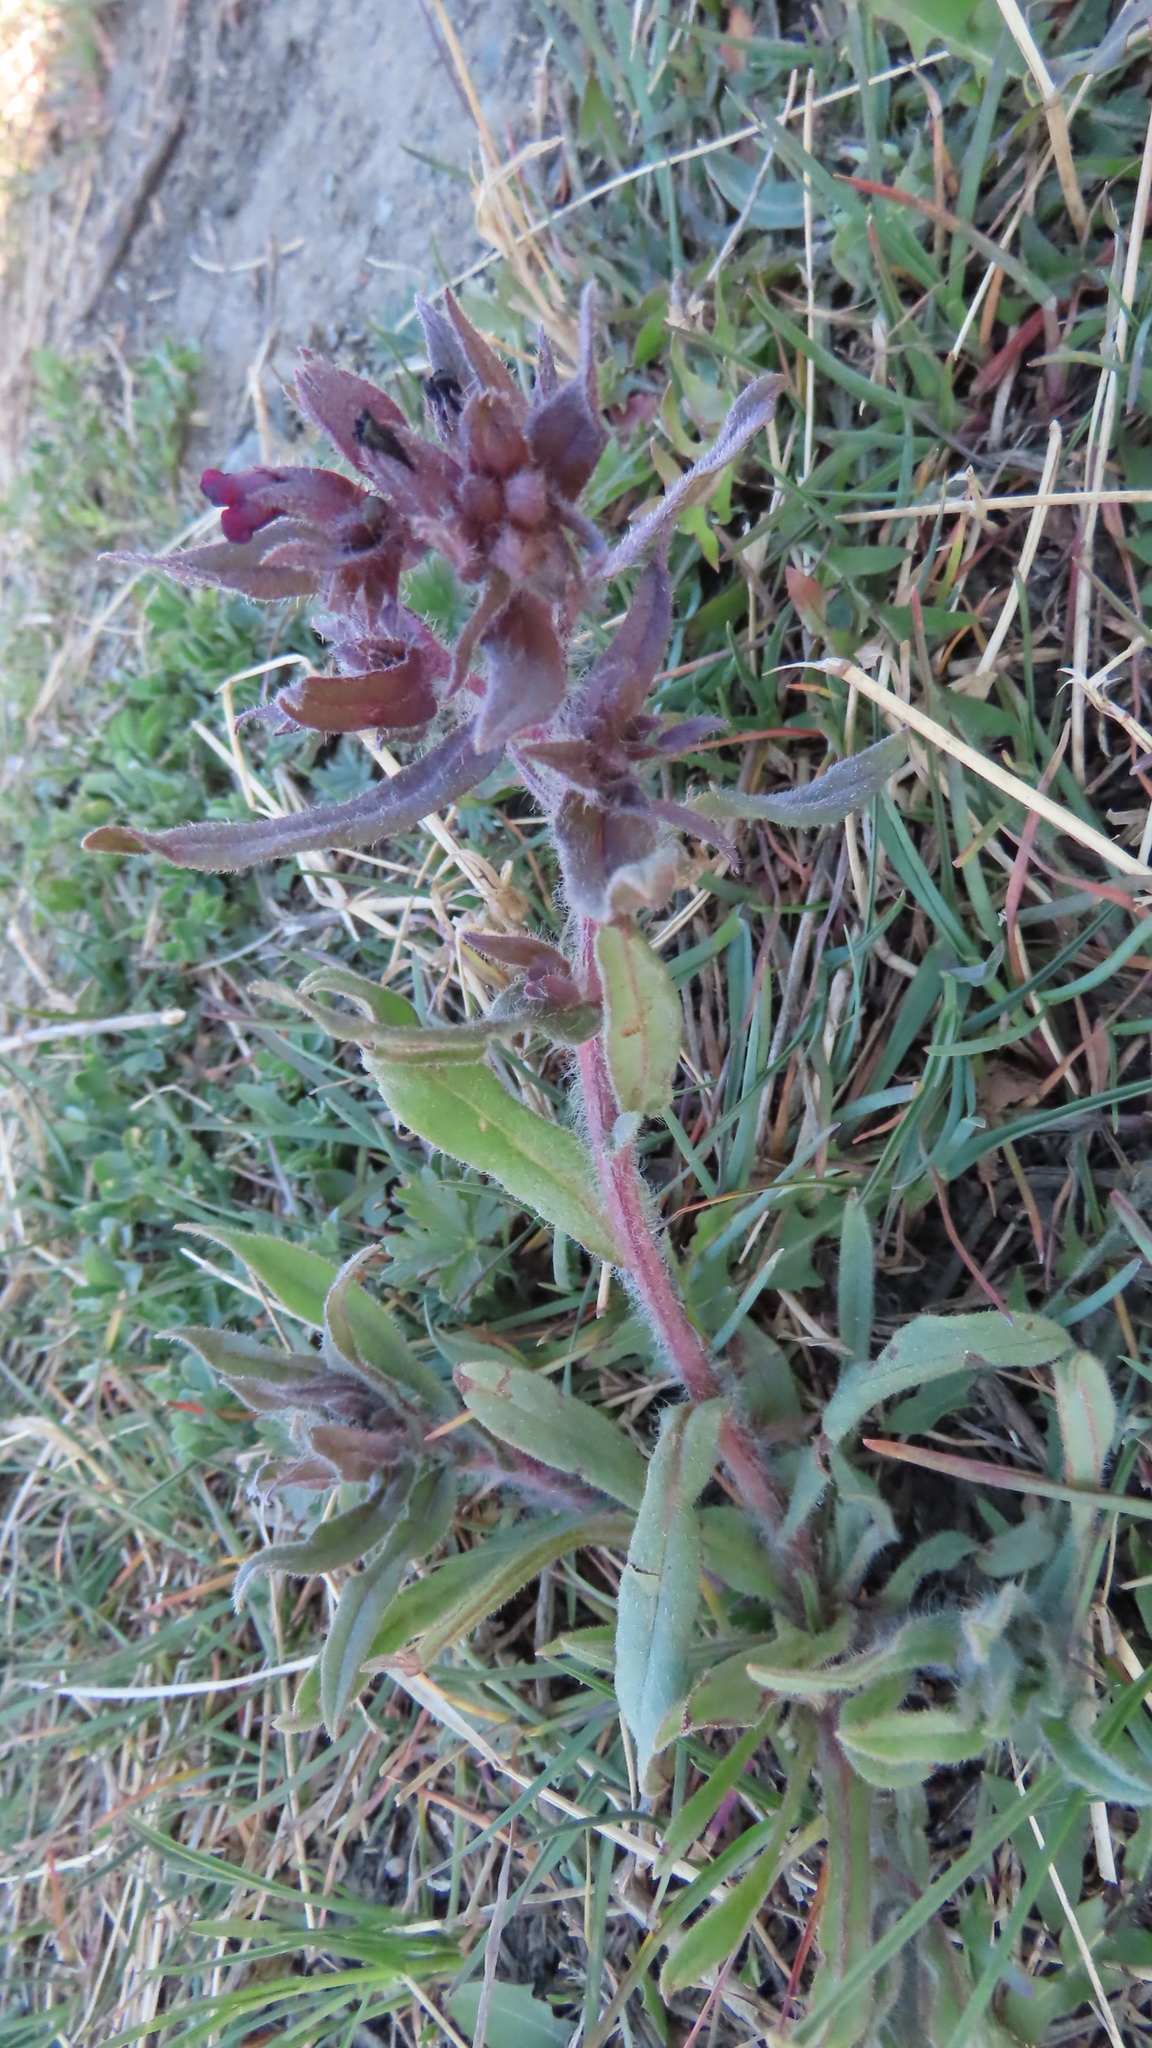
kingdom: Plantae
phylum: Tracheophyta
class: Magnoliopsida
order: Boraginales
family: Boraginaceae
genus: Nonea
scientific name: Nonea pulla
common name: Brown nonea
